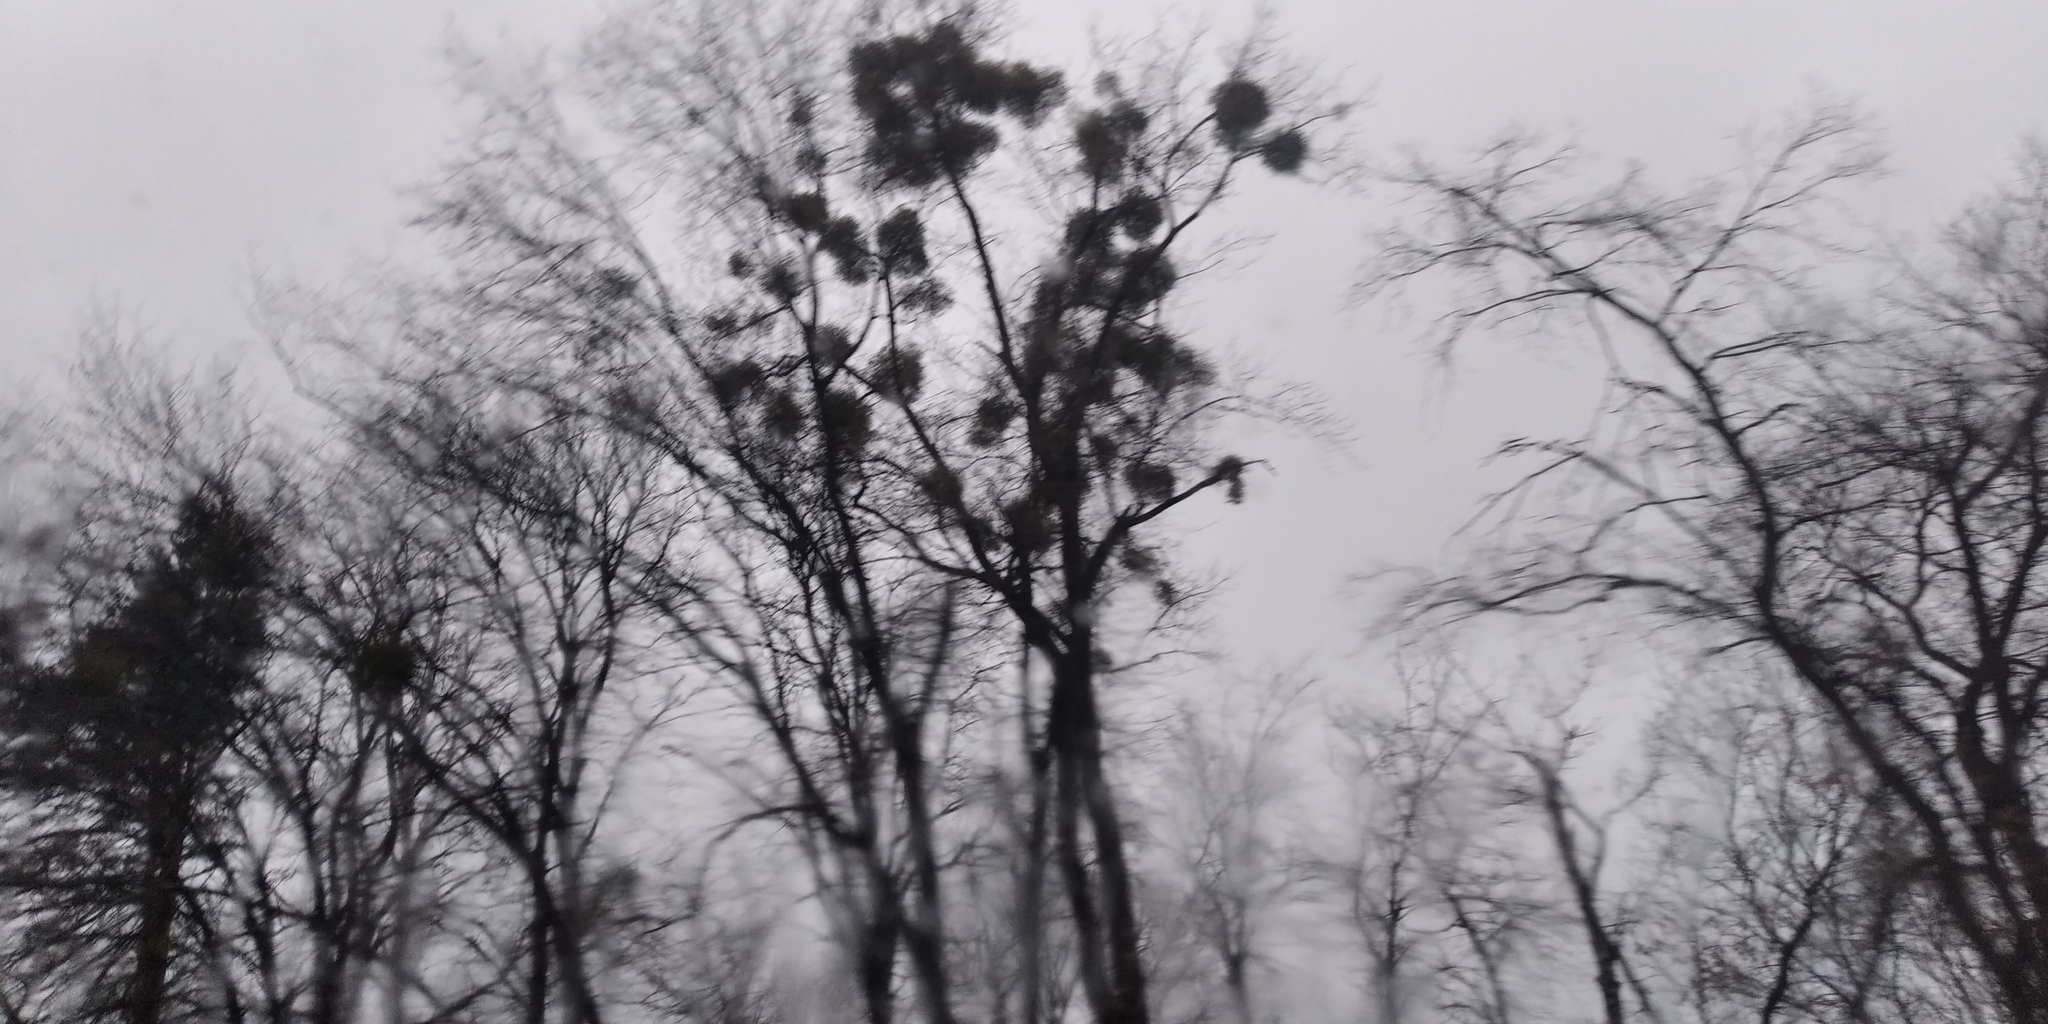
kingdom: Plantae
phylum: Tracheophyta
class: Magnoliopsida
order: Santalales
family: Viscaceae
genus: Viscum
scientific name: Viscum album
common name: Mistletoe
